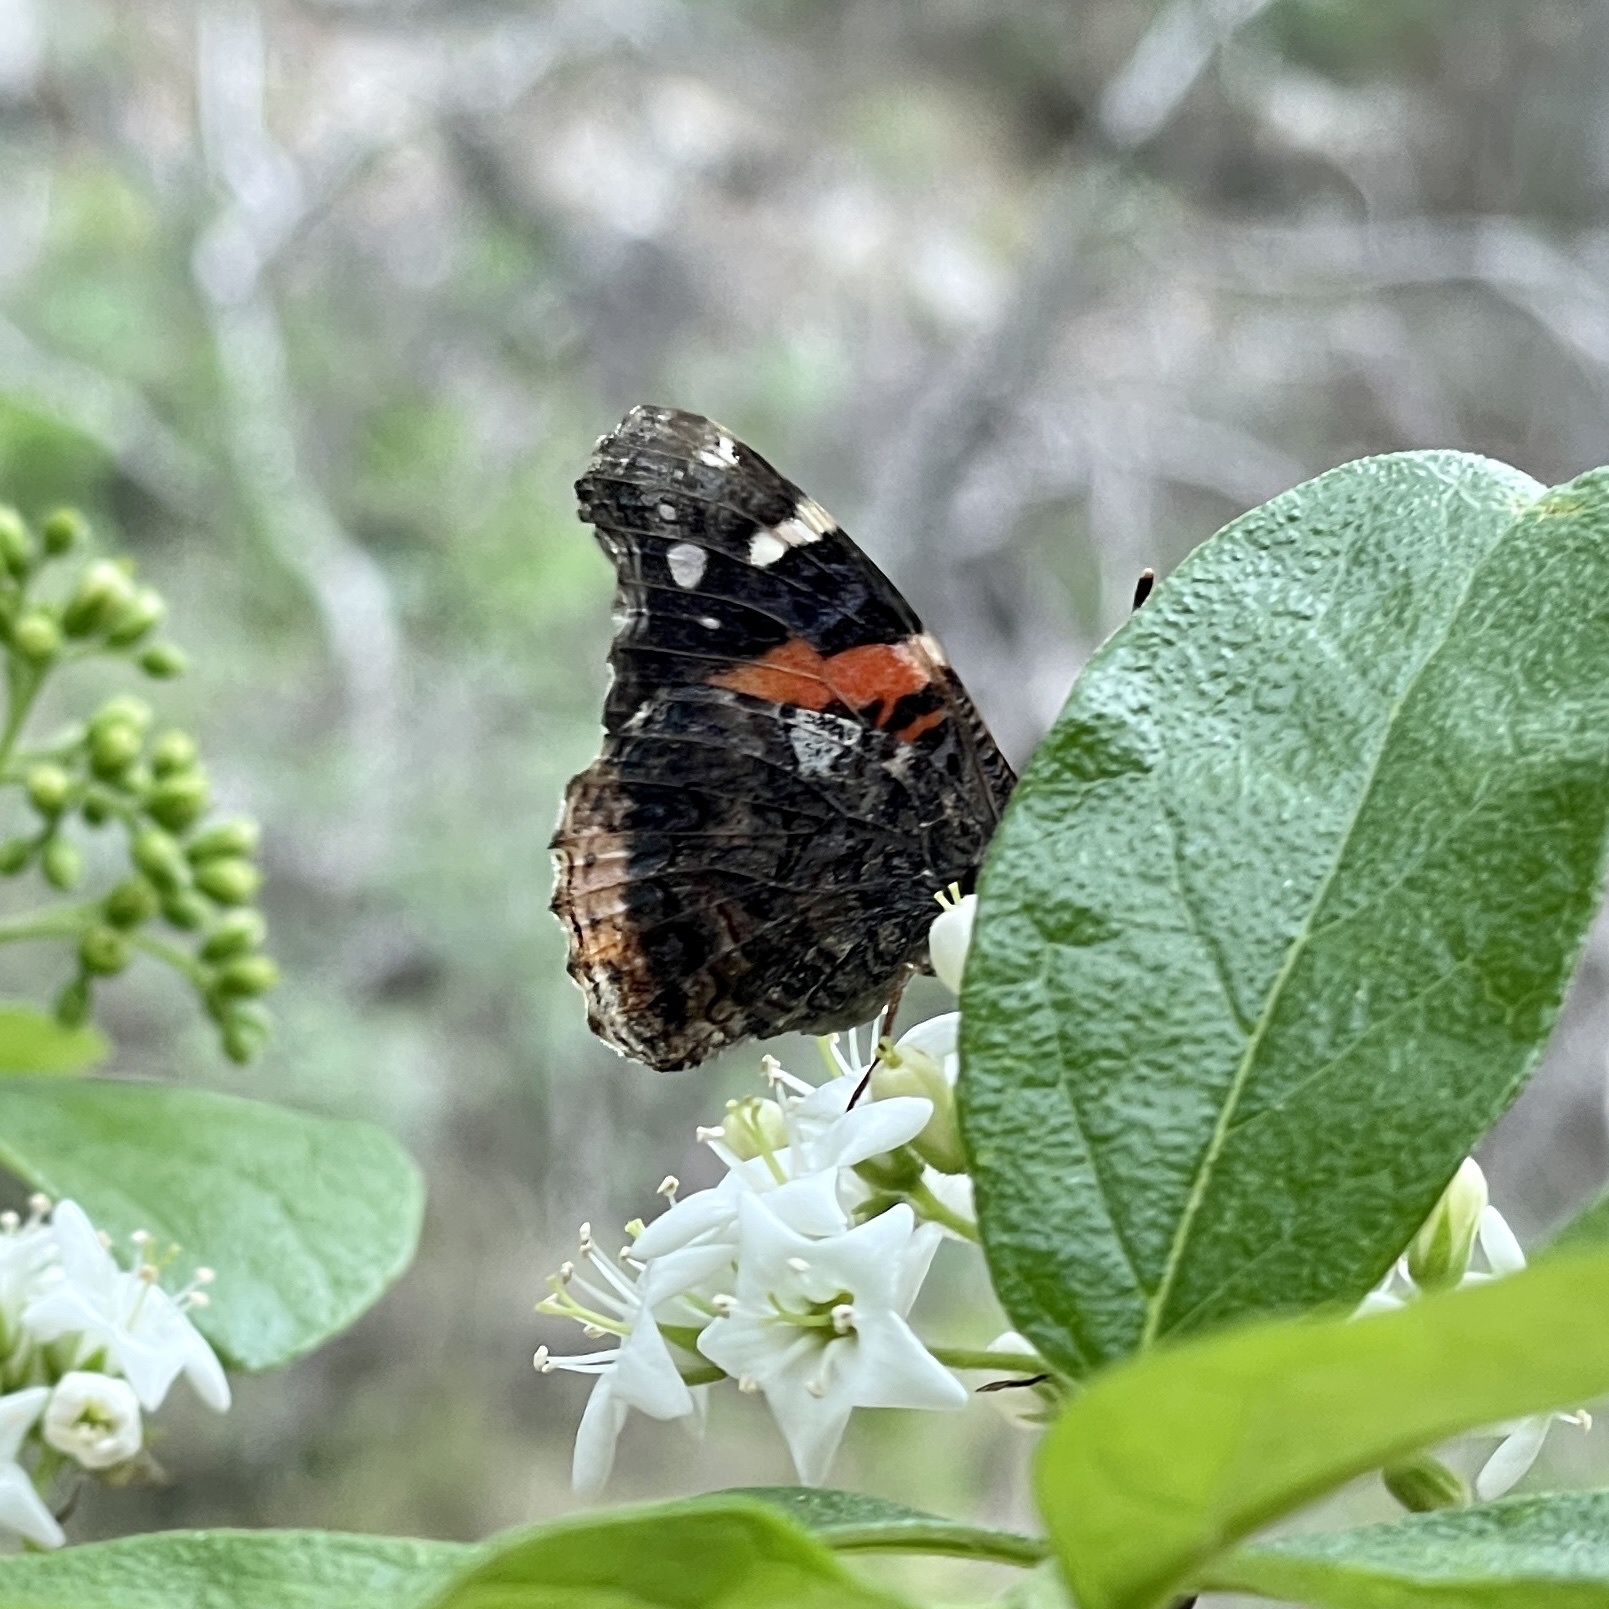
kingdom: Animalia
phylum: Arthropoda
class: Insecta
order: Lepidoptera
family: Nymphalidae
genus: Vanessa
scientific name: Vanessa atalanta
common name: Red admiral
